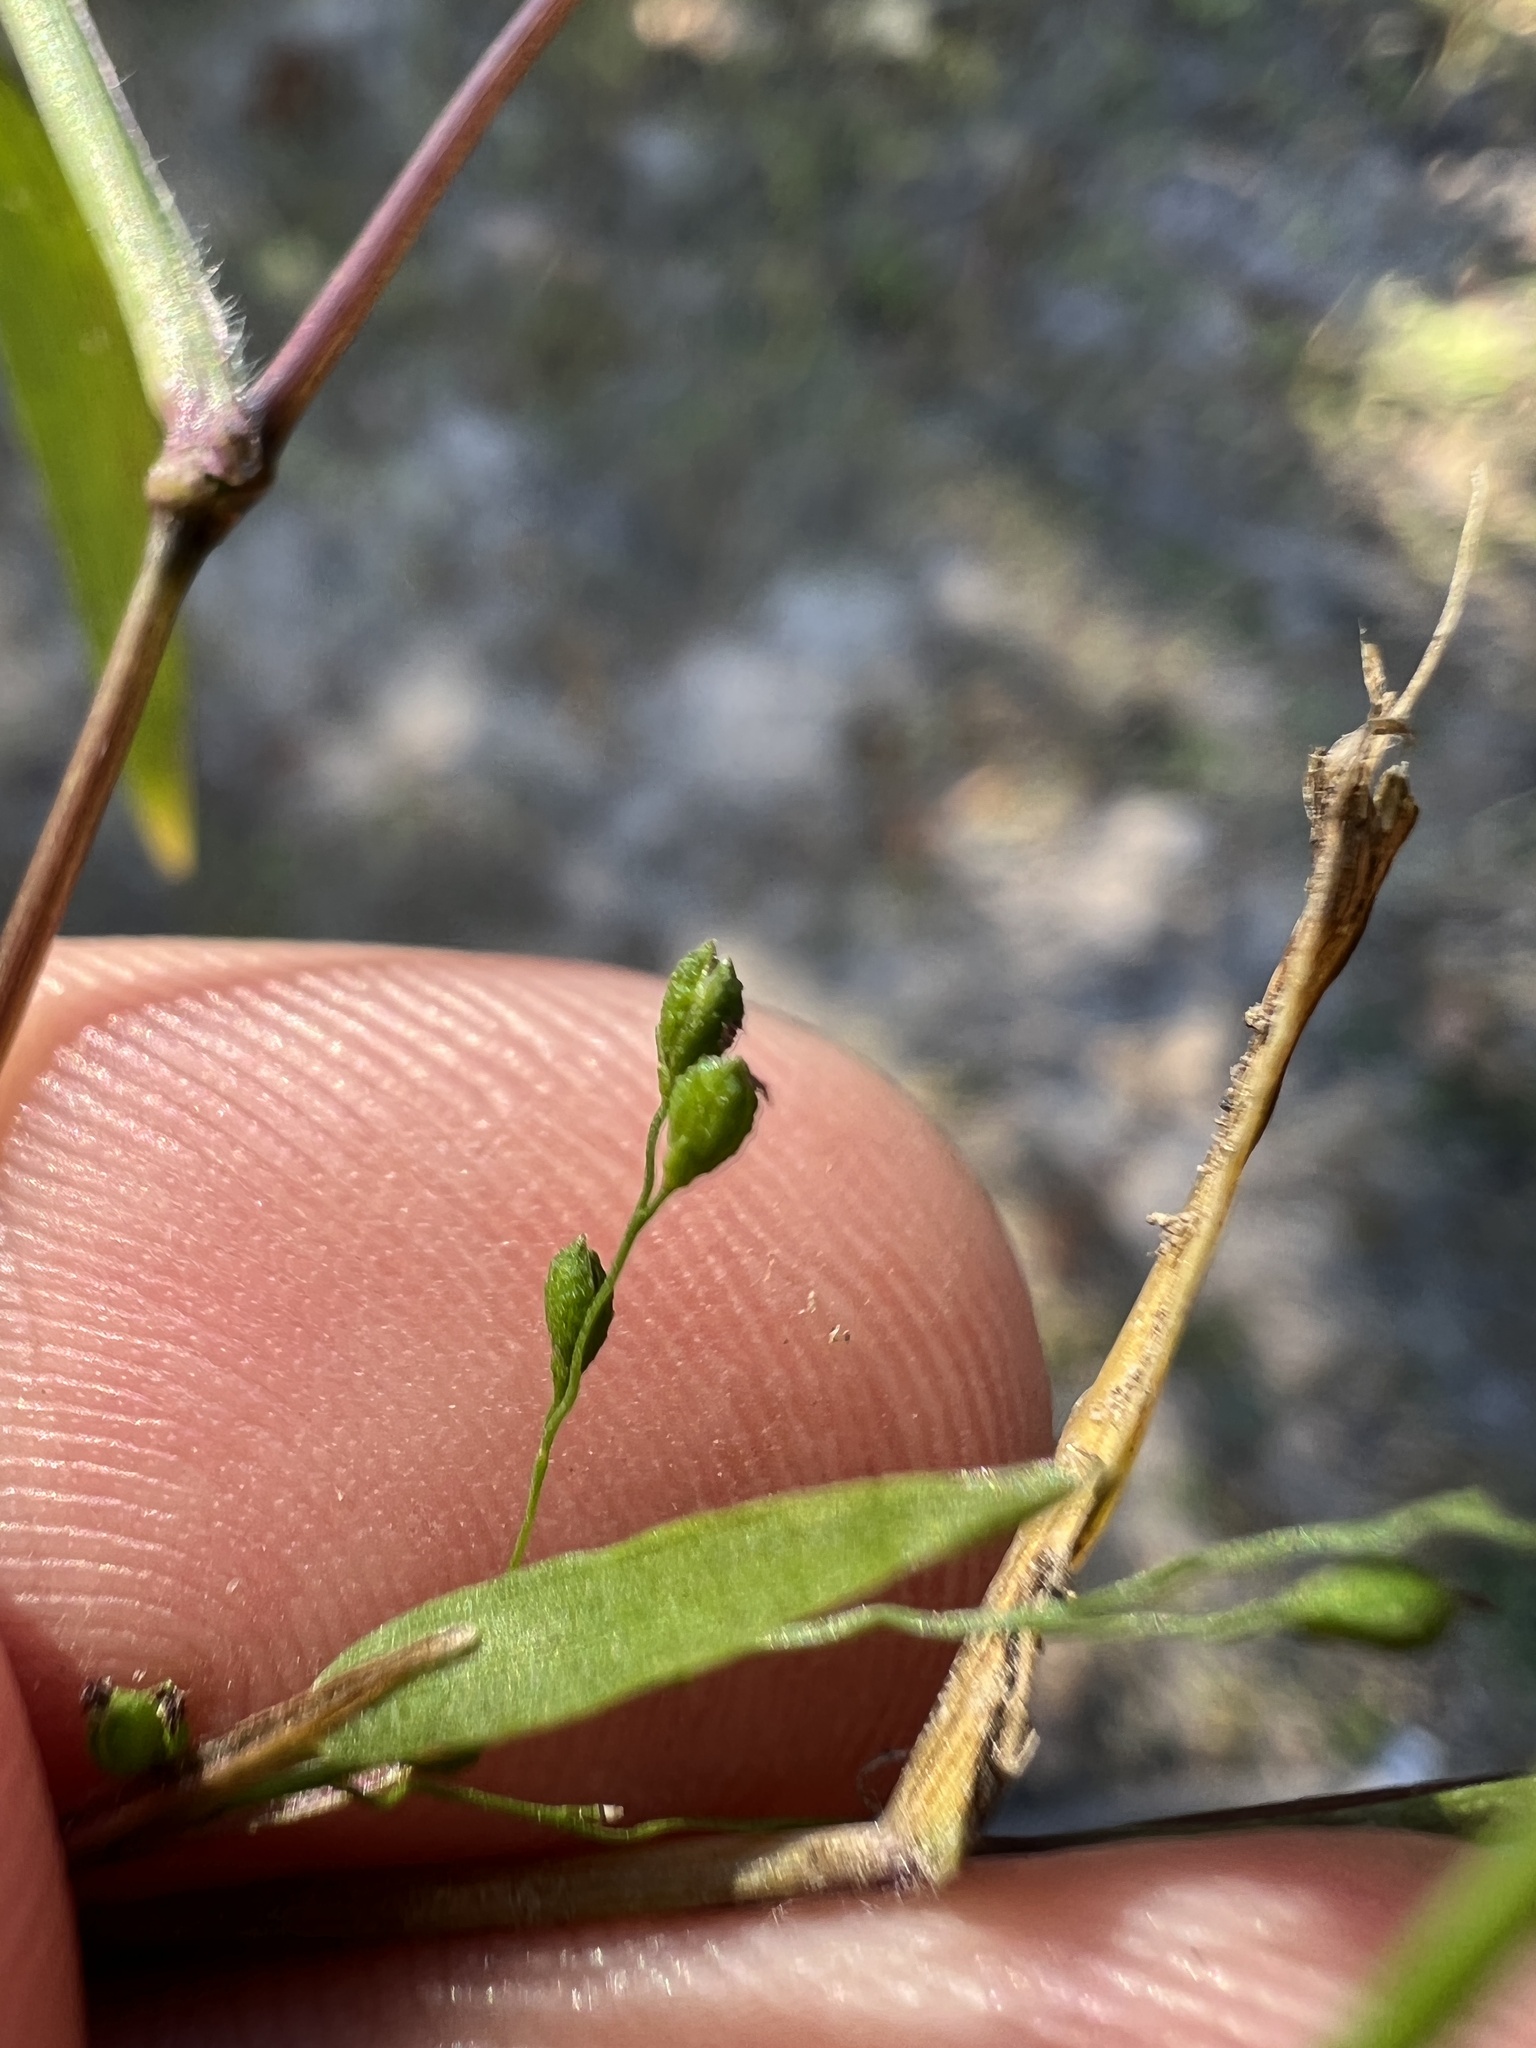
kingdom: Plantae
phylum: Tracheophyta
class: Liliopsida
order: Poales
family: Poaceae
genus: Kellochloa
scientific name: Kellochloa verrucosa
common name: Warty panic grass
